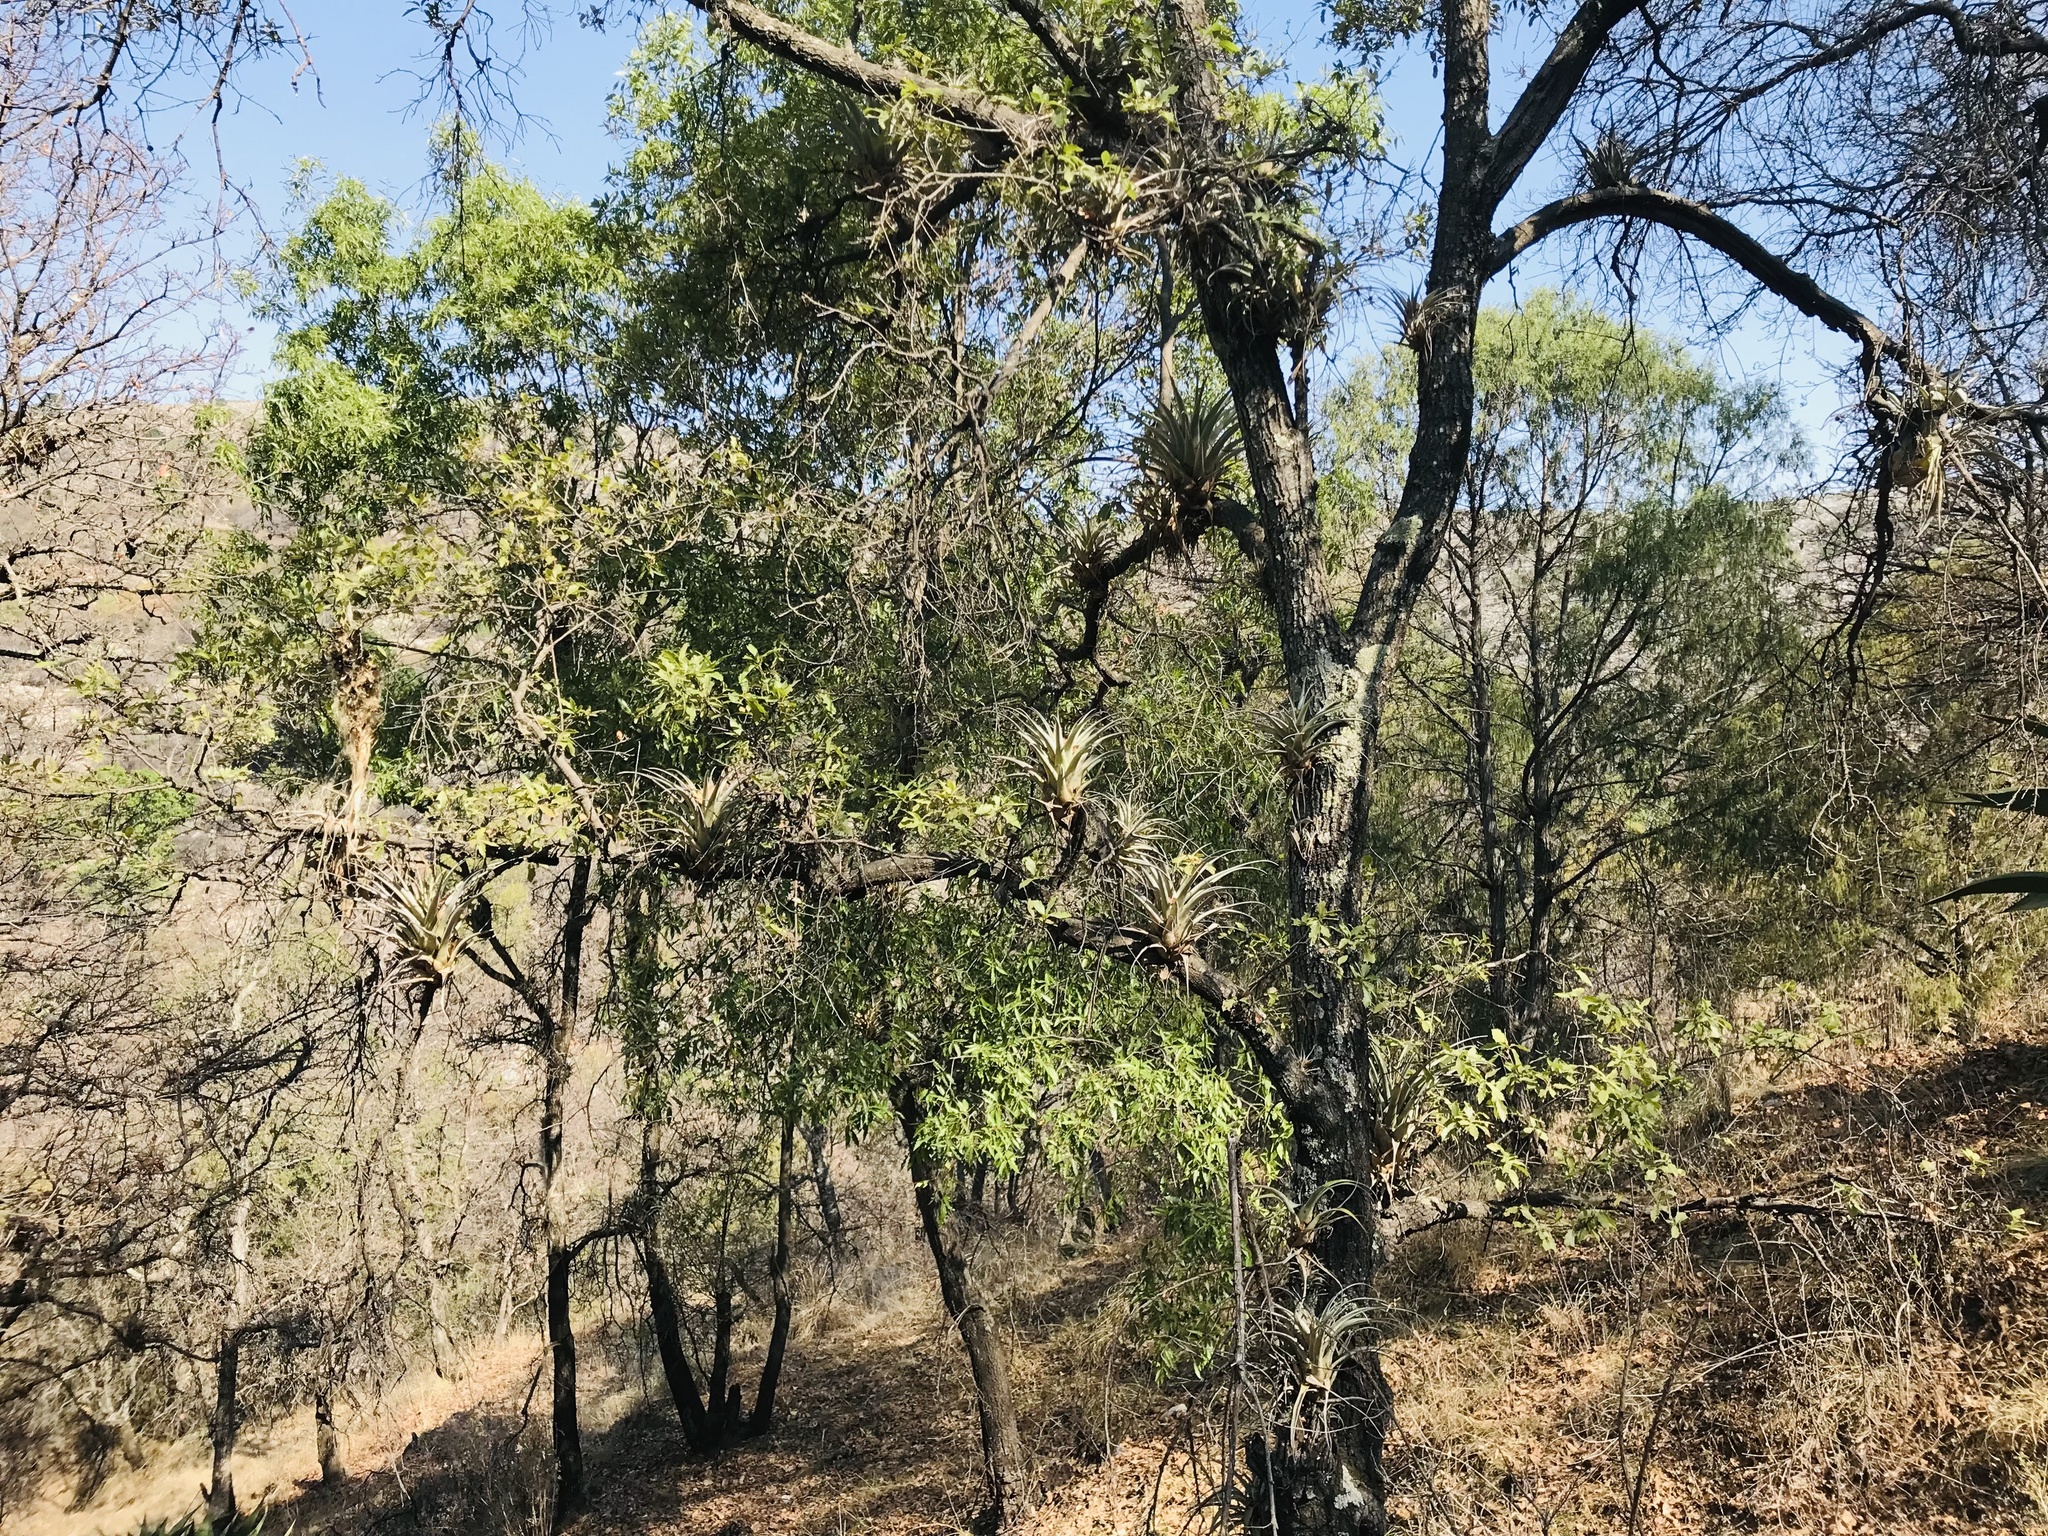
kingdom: Plantae
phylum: Tracheophyta
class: Pinopsida
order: Pinales
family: Cupressaceae
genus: Juniperus
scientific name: Juniperus flaccida
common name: Drooping juniper
